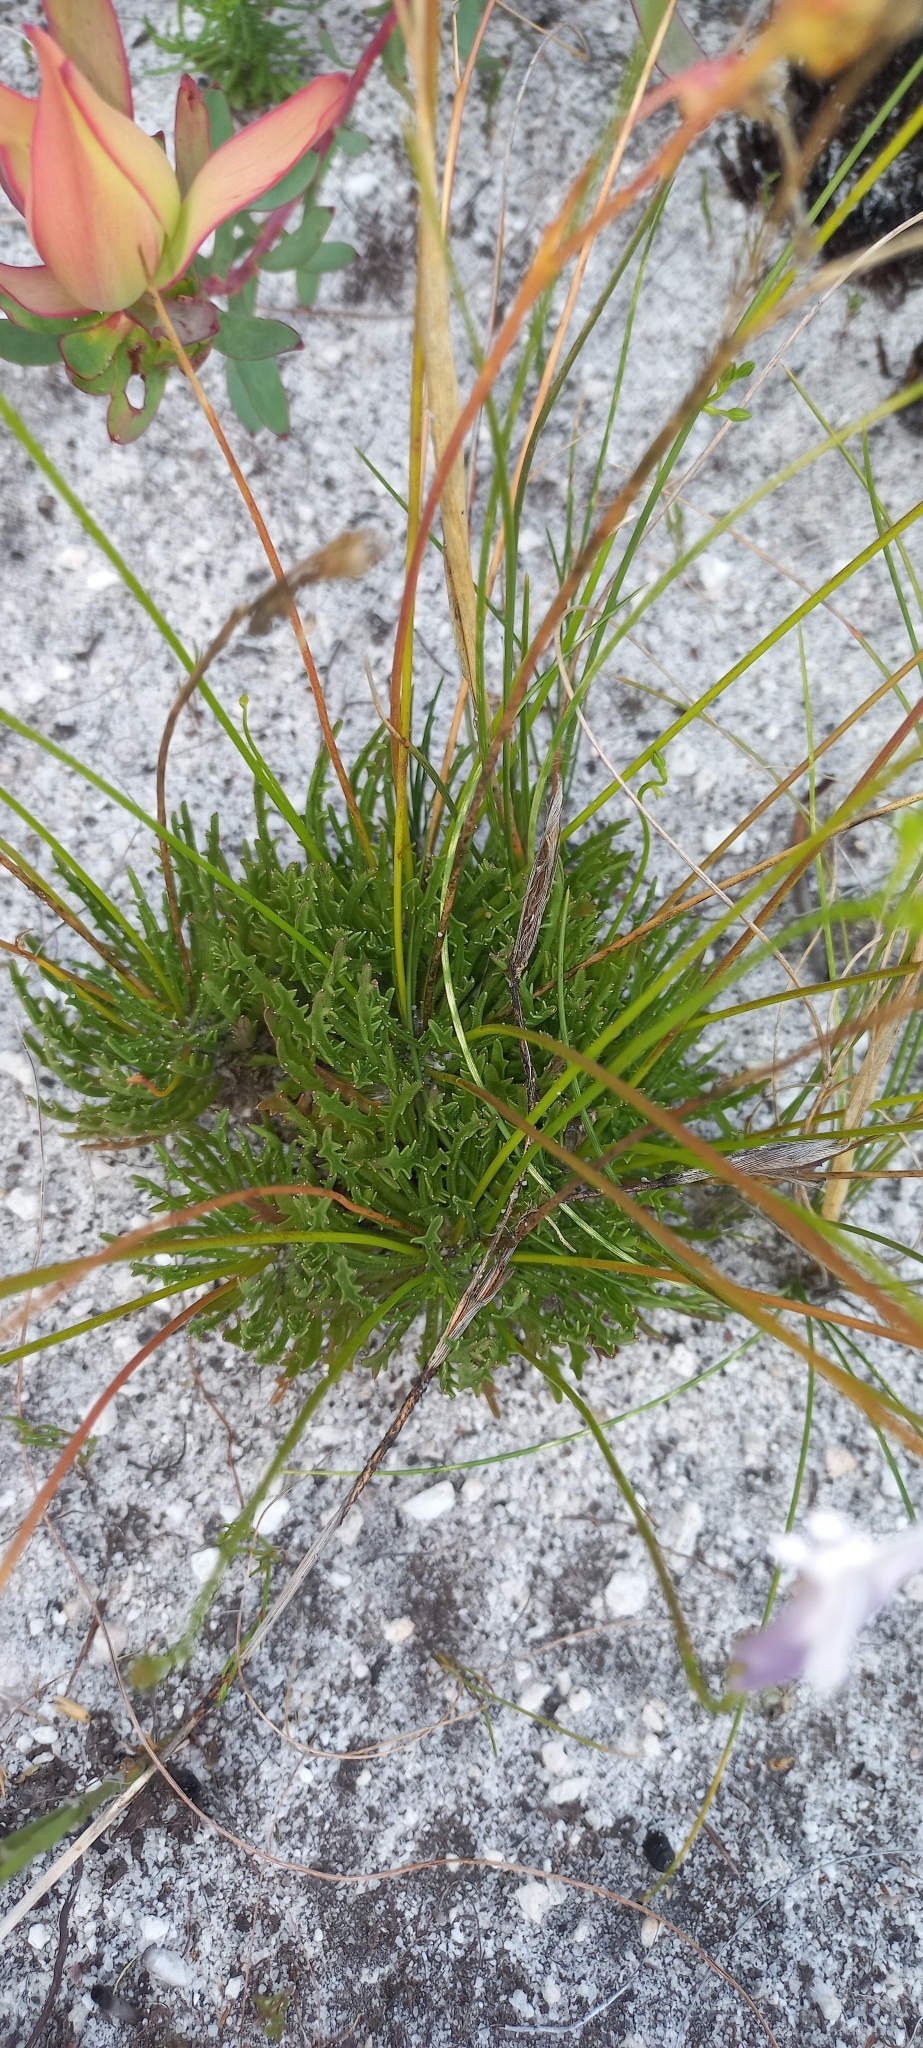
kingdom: Plantae
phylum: Tracheophyta
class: Magnoliopsida
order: Asterales
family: Campanulaceae
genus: Lobelia
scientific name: Lobelia coronopifolia
